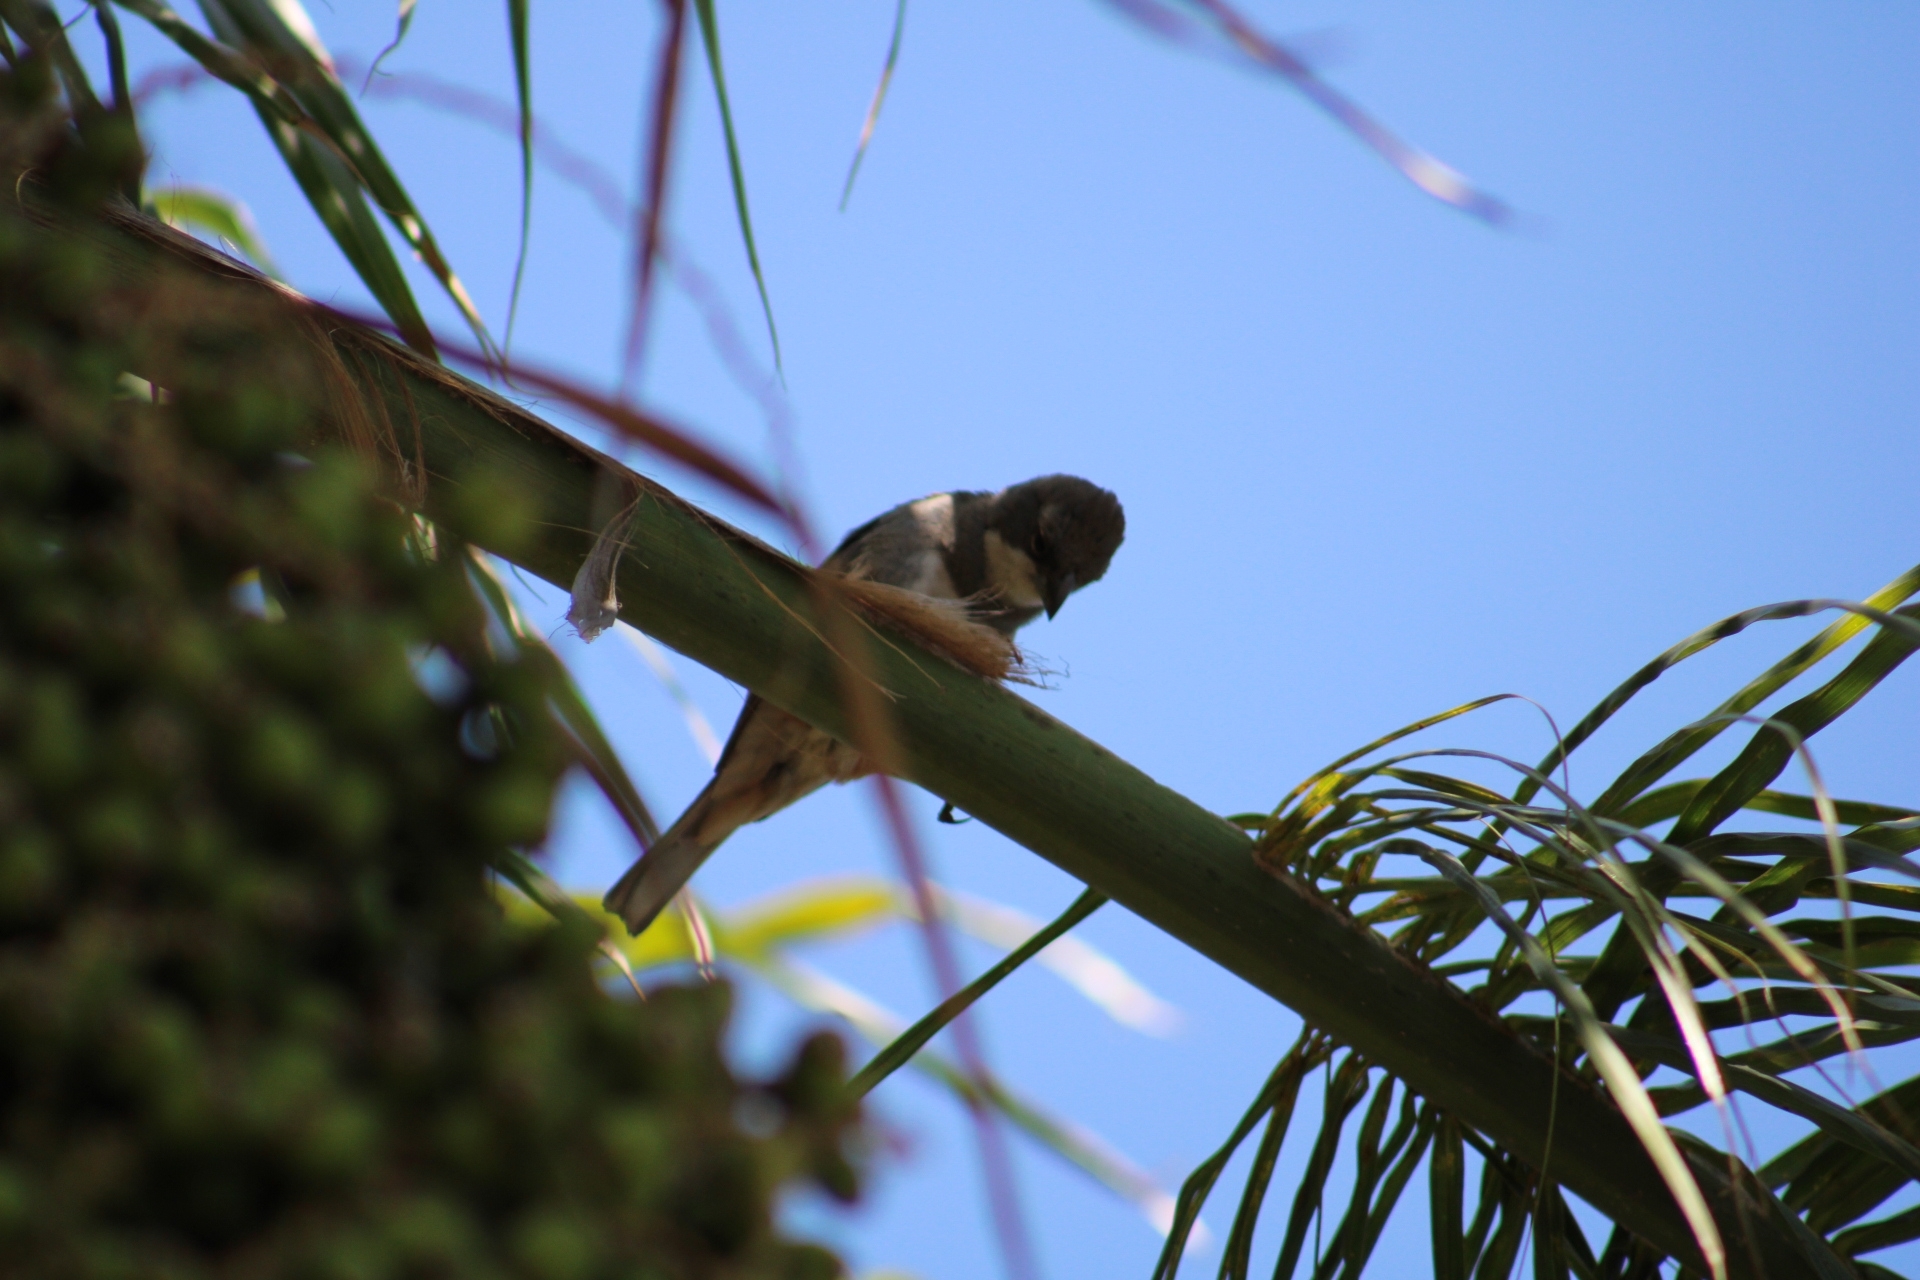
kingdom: Animalia
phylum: Chordata
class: Aves
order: Passeriformes
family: Thraupidae
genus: Diuca
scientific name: Diuca diuca
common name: Common diuca finch
